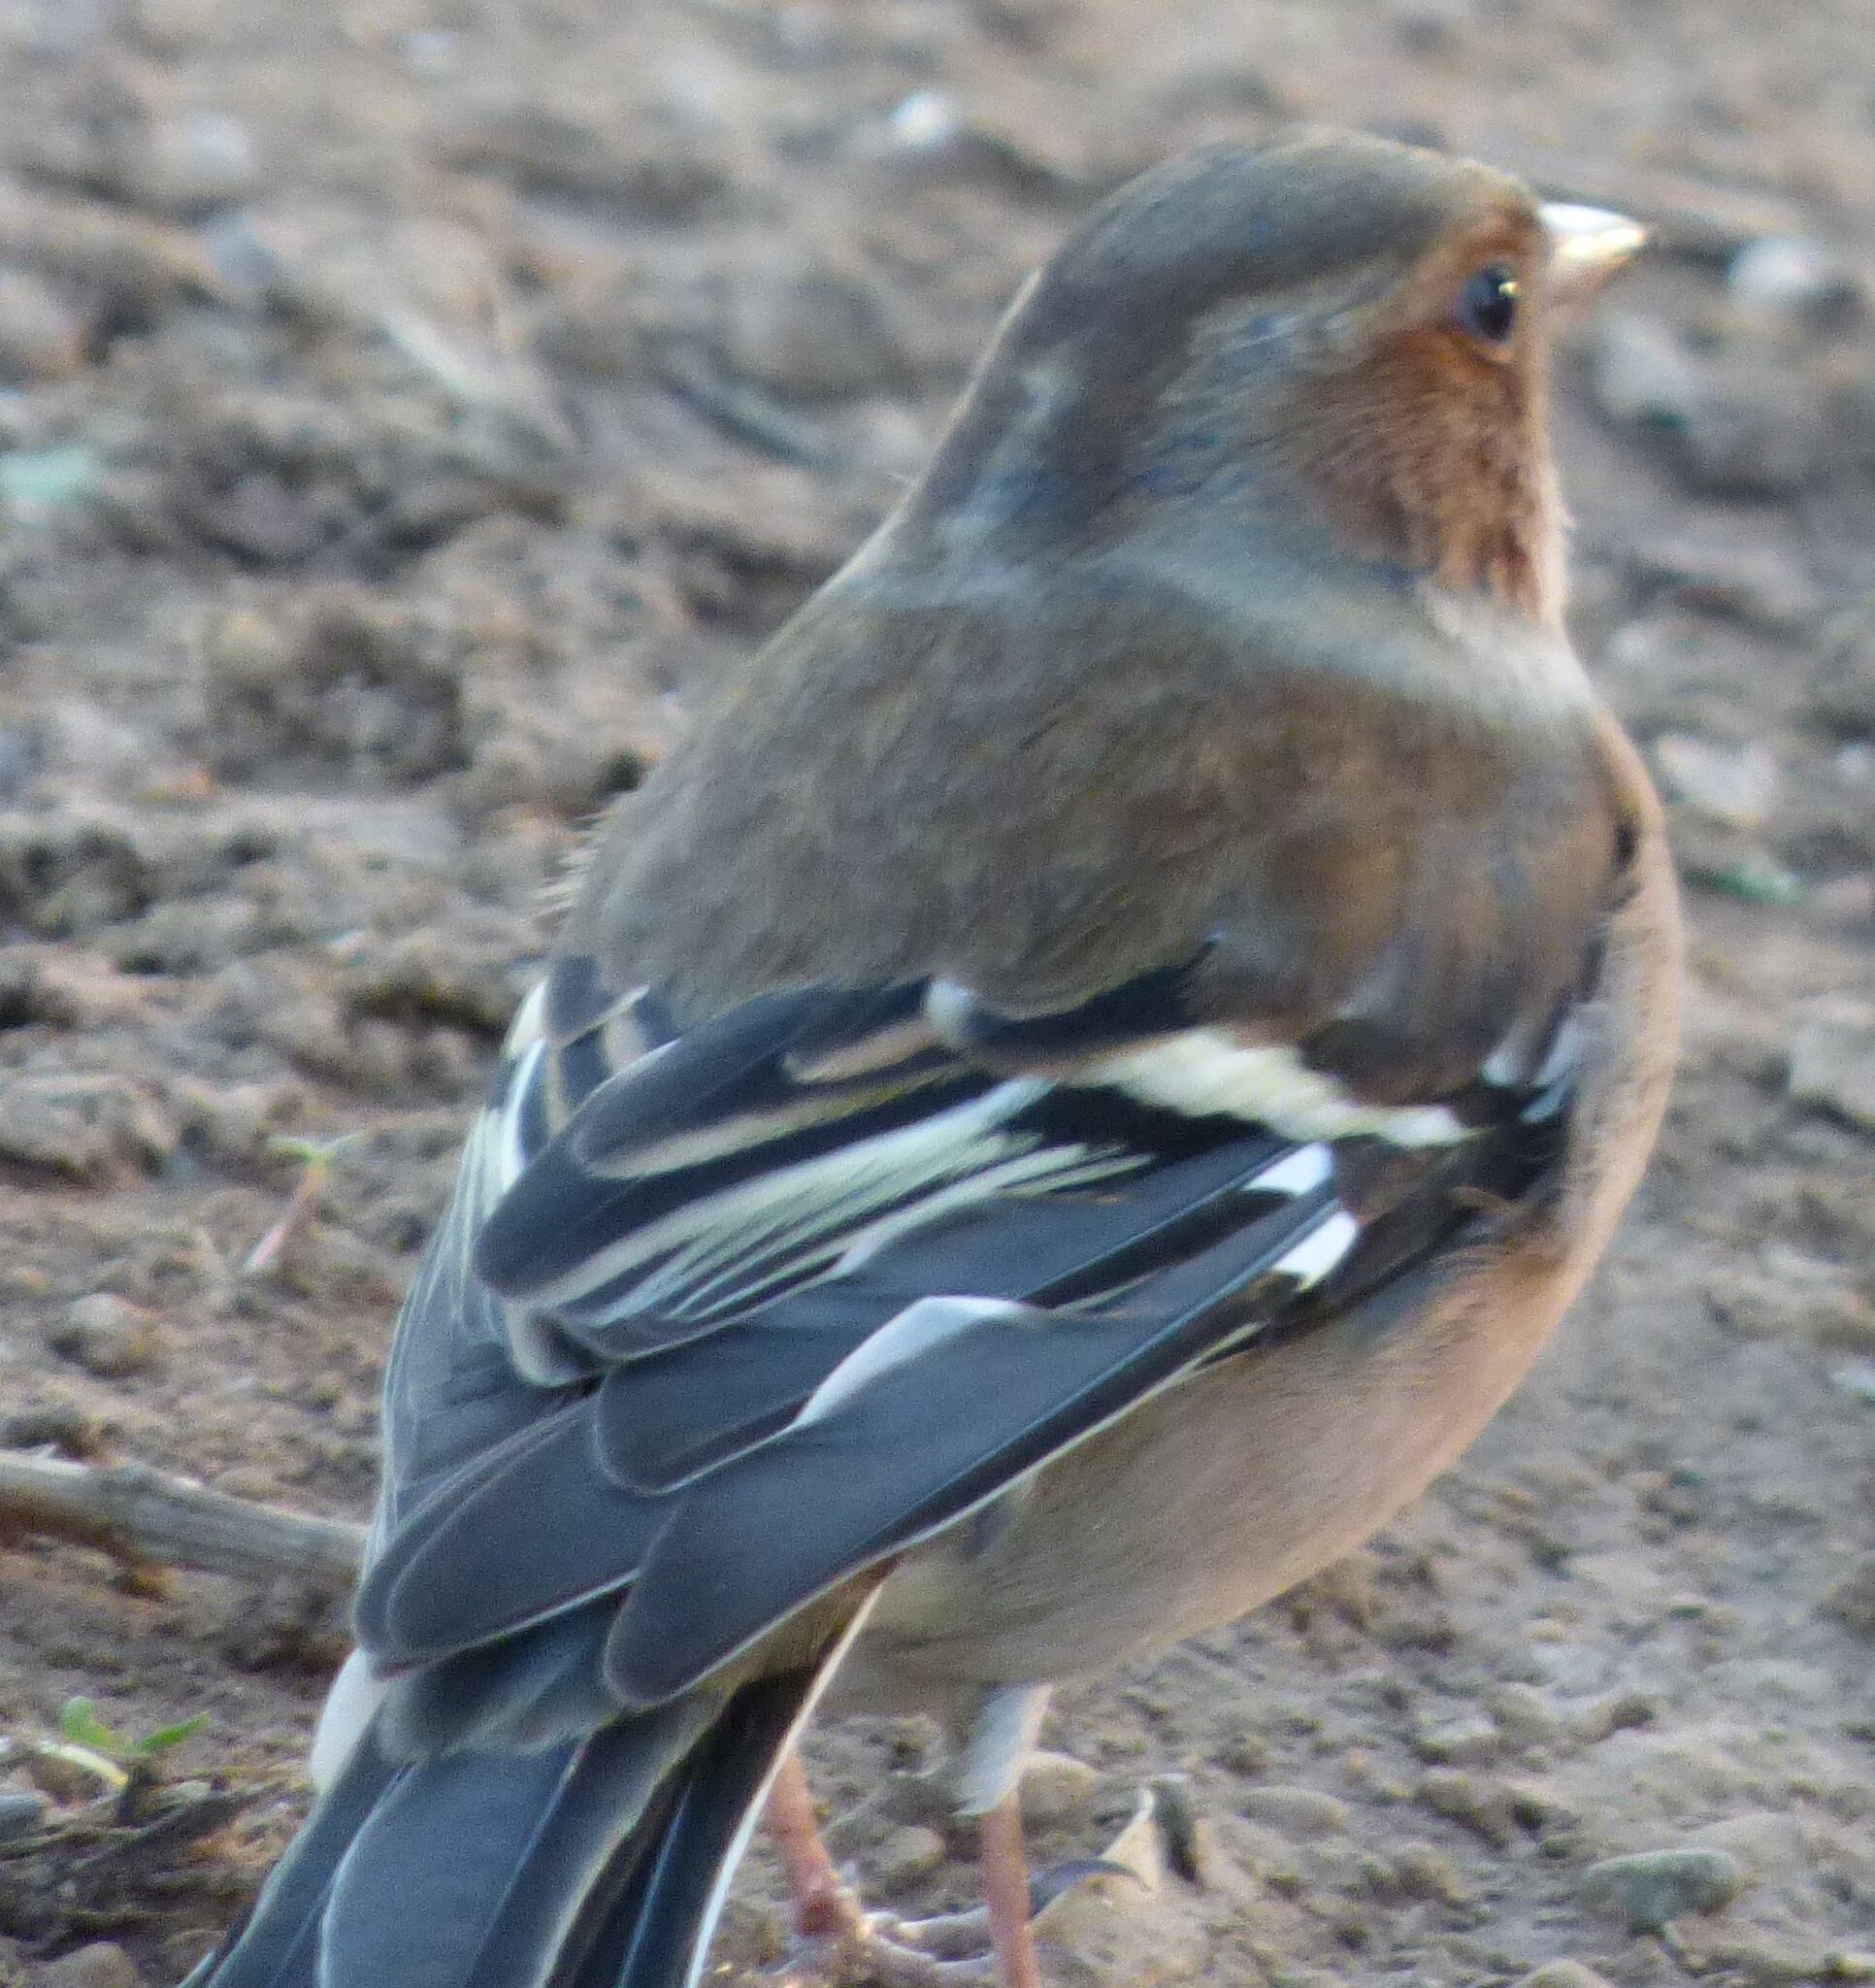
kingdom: Animalia
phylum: Chordata
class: Aves
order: Passeriformes
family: Fringillidae
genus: Fringilla
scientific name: Fringilla coelebs
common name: Common chaffinch
